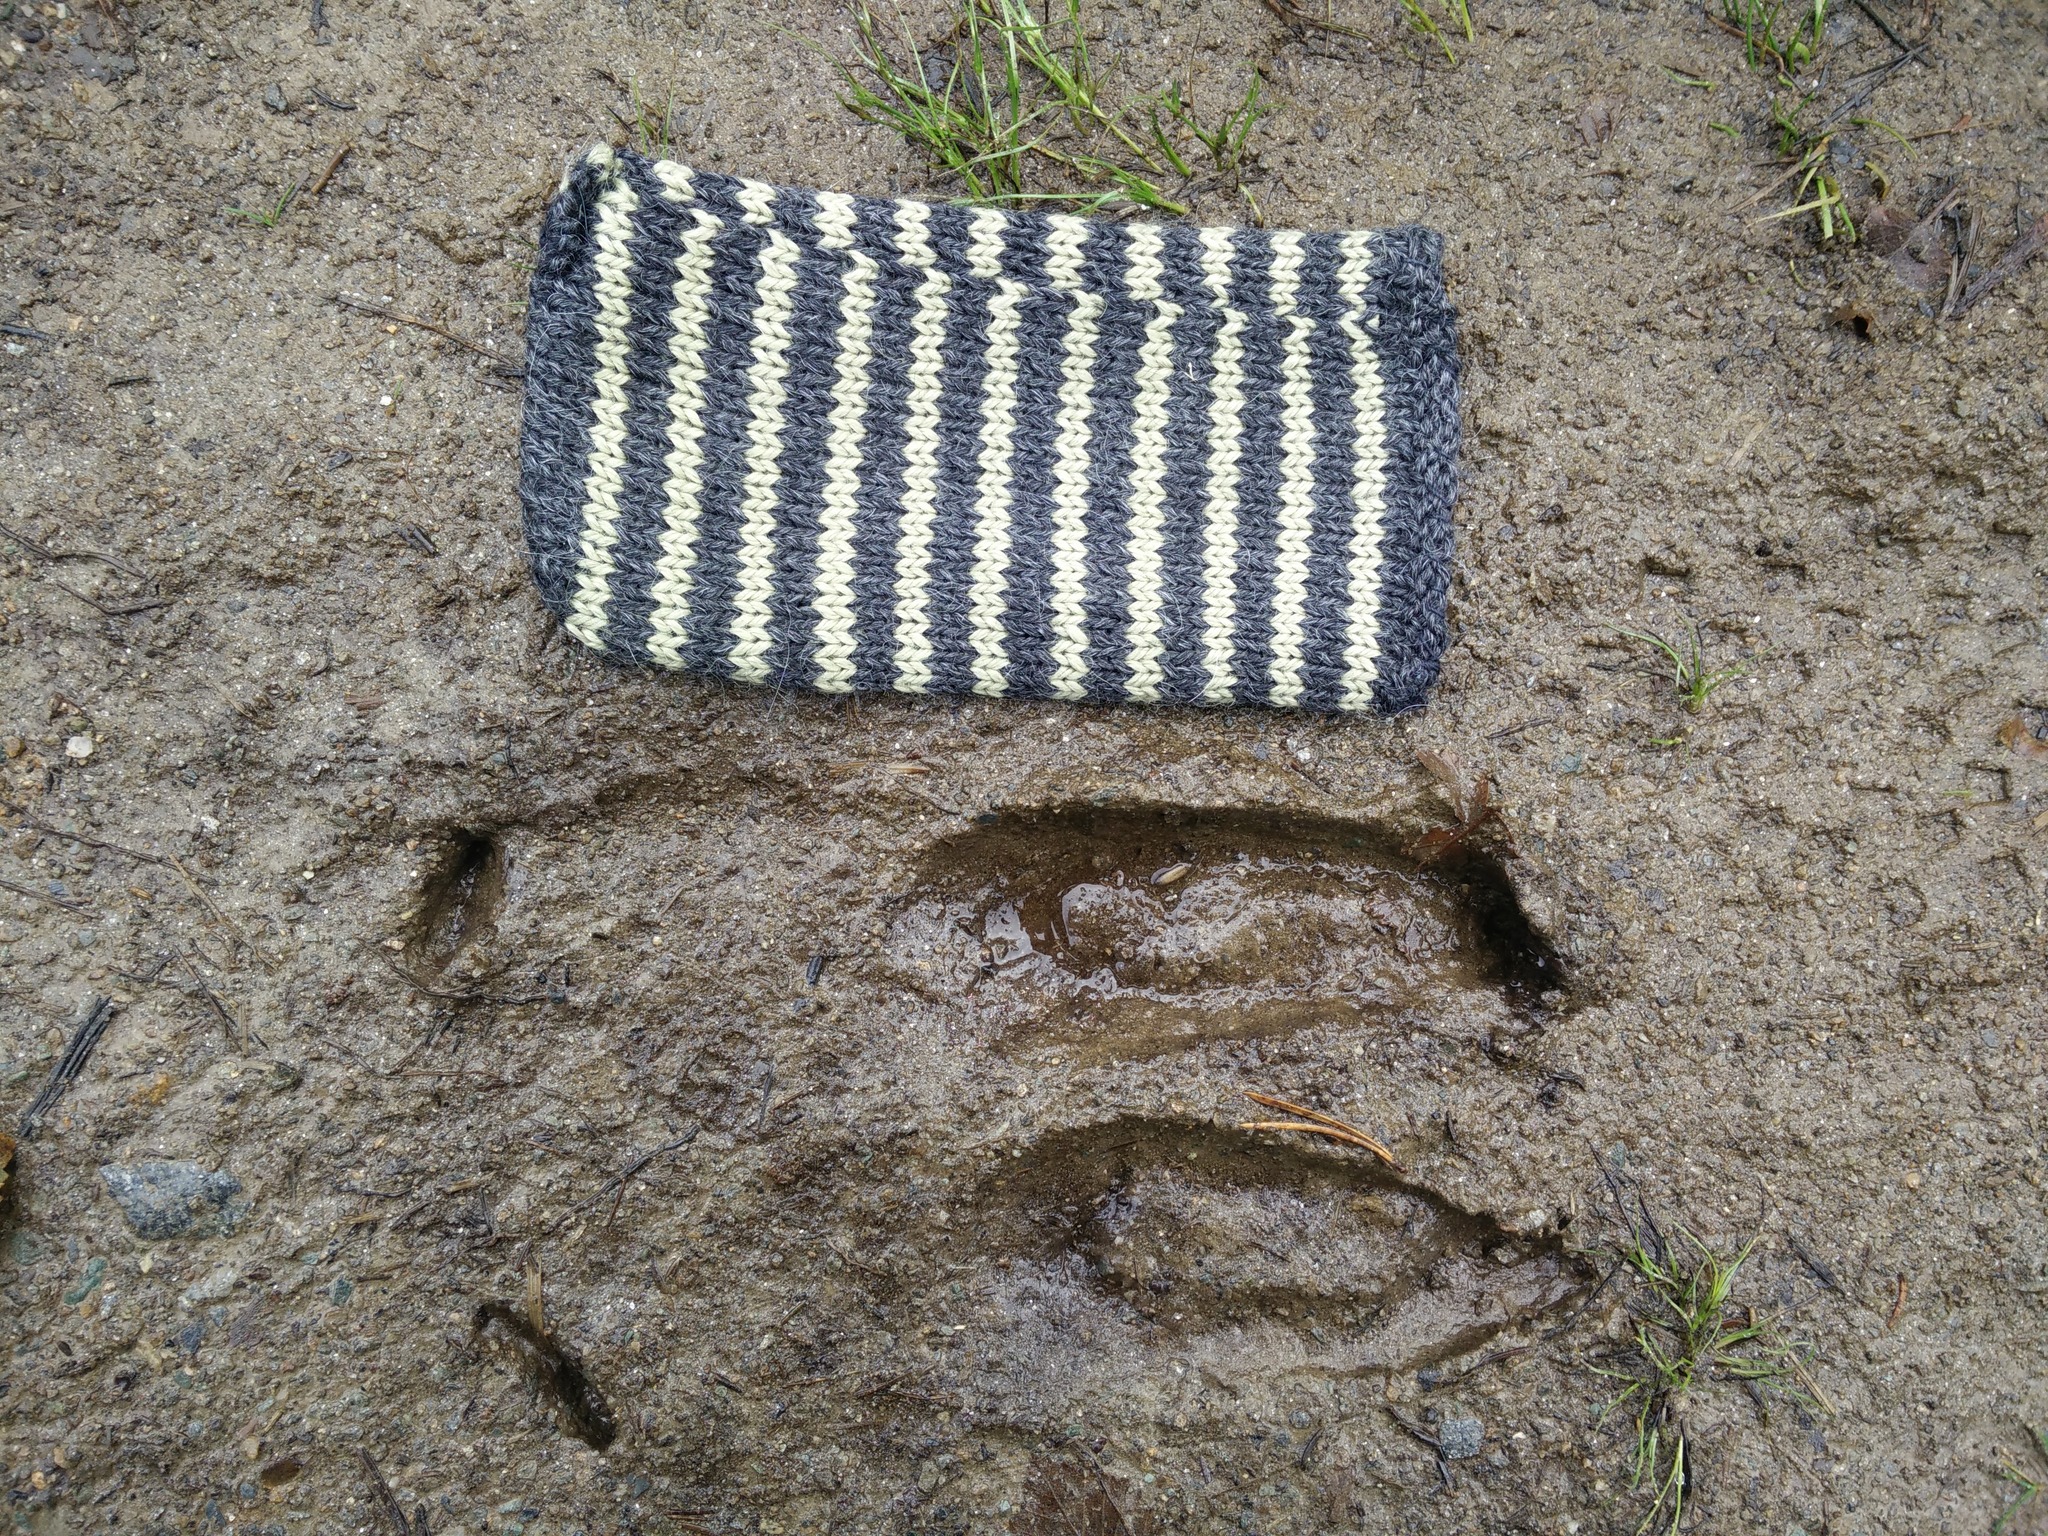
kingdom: Animalia
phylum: Chordata
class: Mammalia
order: Artiodactyla
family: Cervidae
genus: Alces
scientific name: Alces alces
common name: Moose
